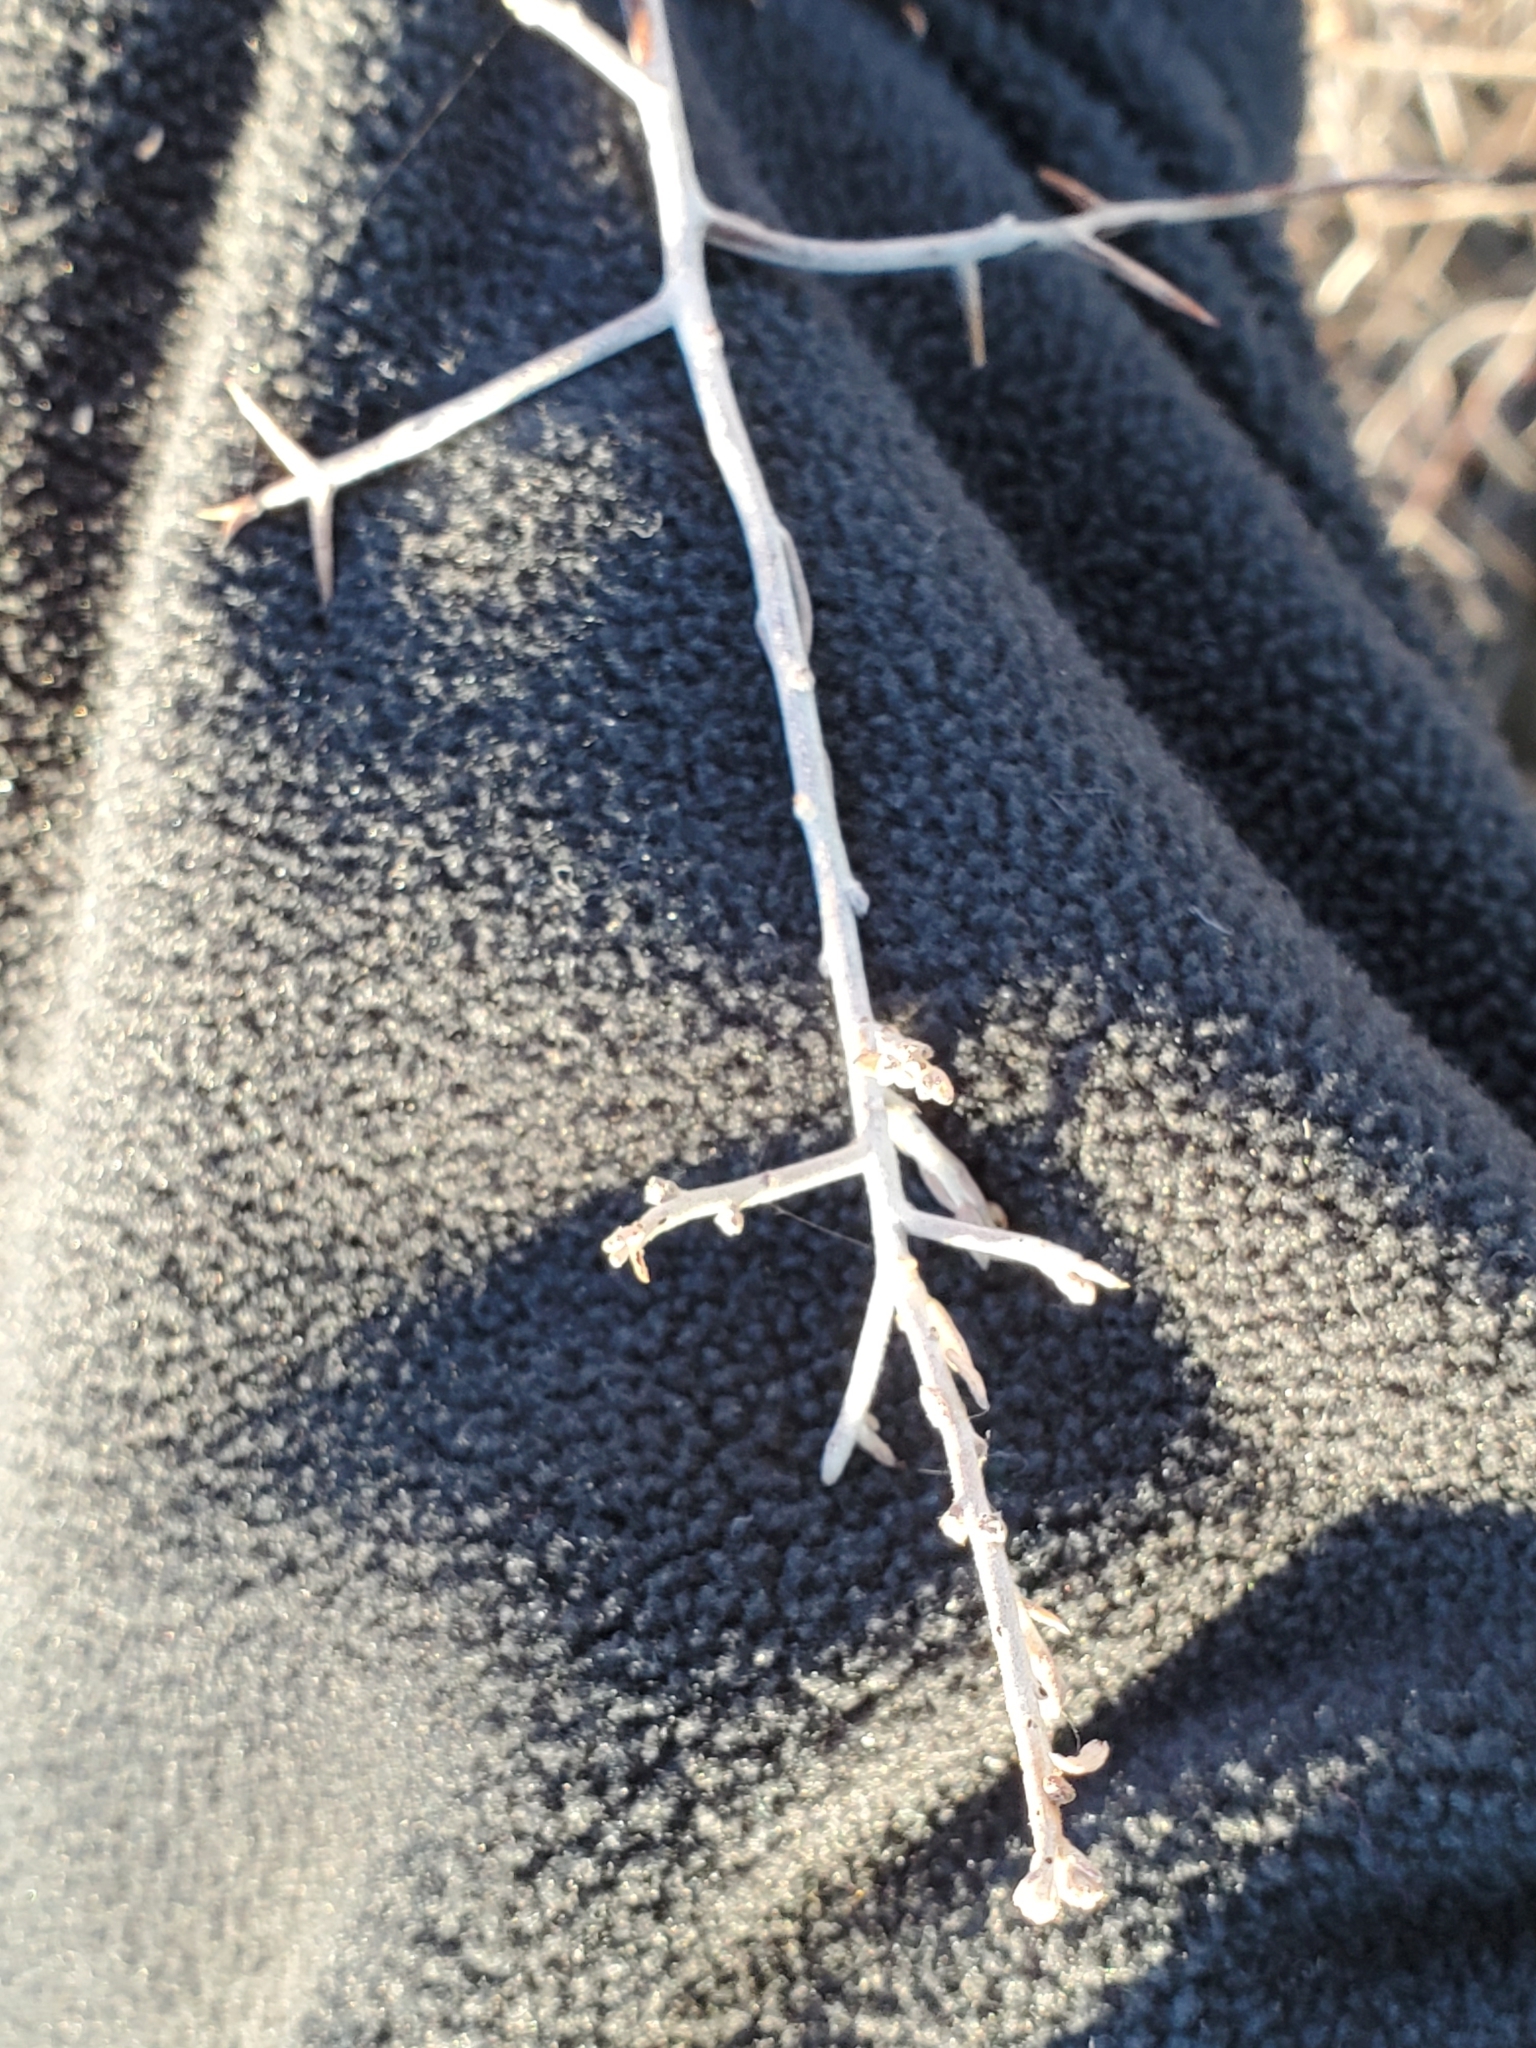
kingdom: Plantae
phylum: Tracheophyta
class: Magnoliopsida
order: Zygophyllales
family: Krameriaceae
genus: Krameria
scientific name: Krameria bicolor
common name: White ratany
